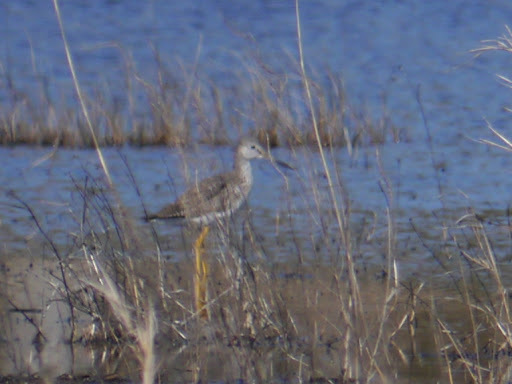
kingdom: Animalia
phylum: Chordata
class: Aves
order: Charadriiformes
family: Scolopacidae
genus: Tringa
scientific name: Tringa melanoleuca
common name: Greater yellowlegs
